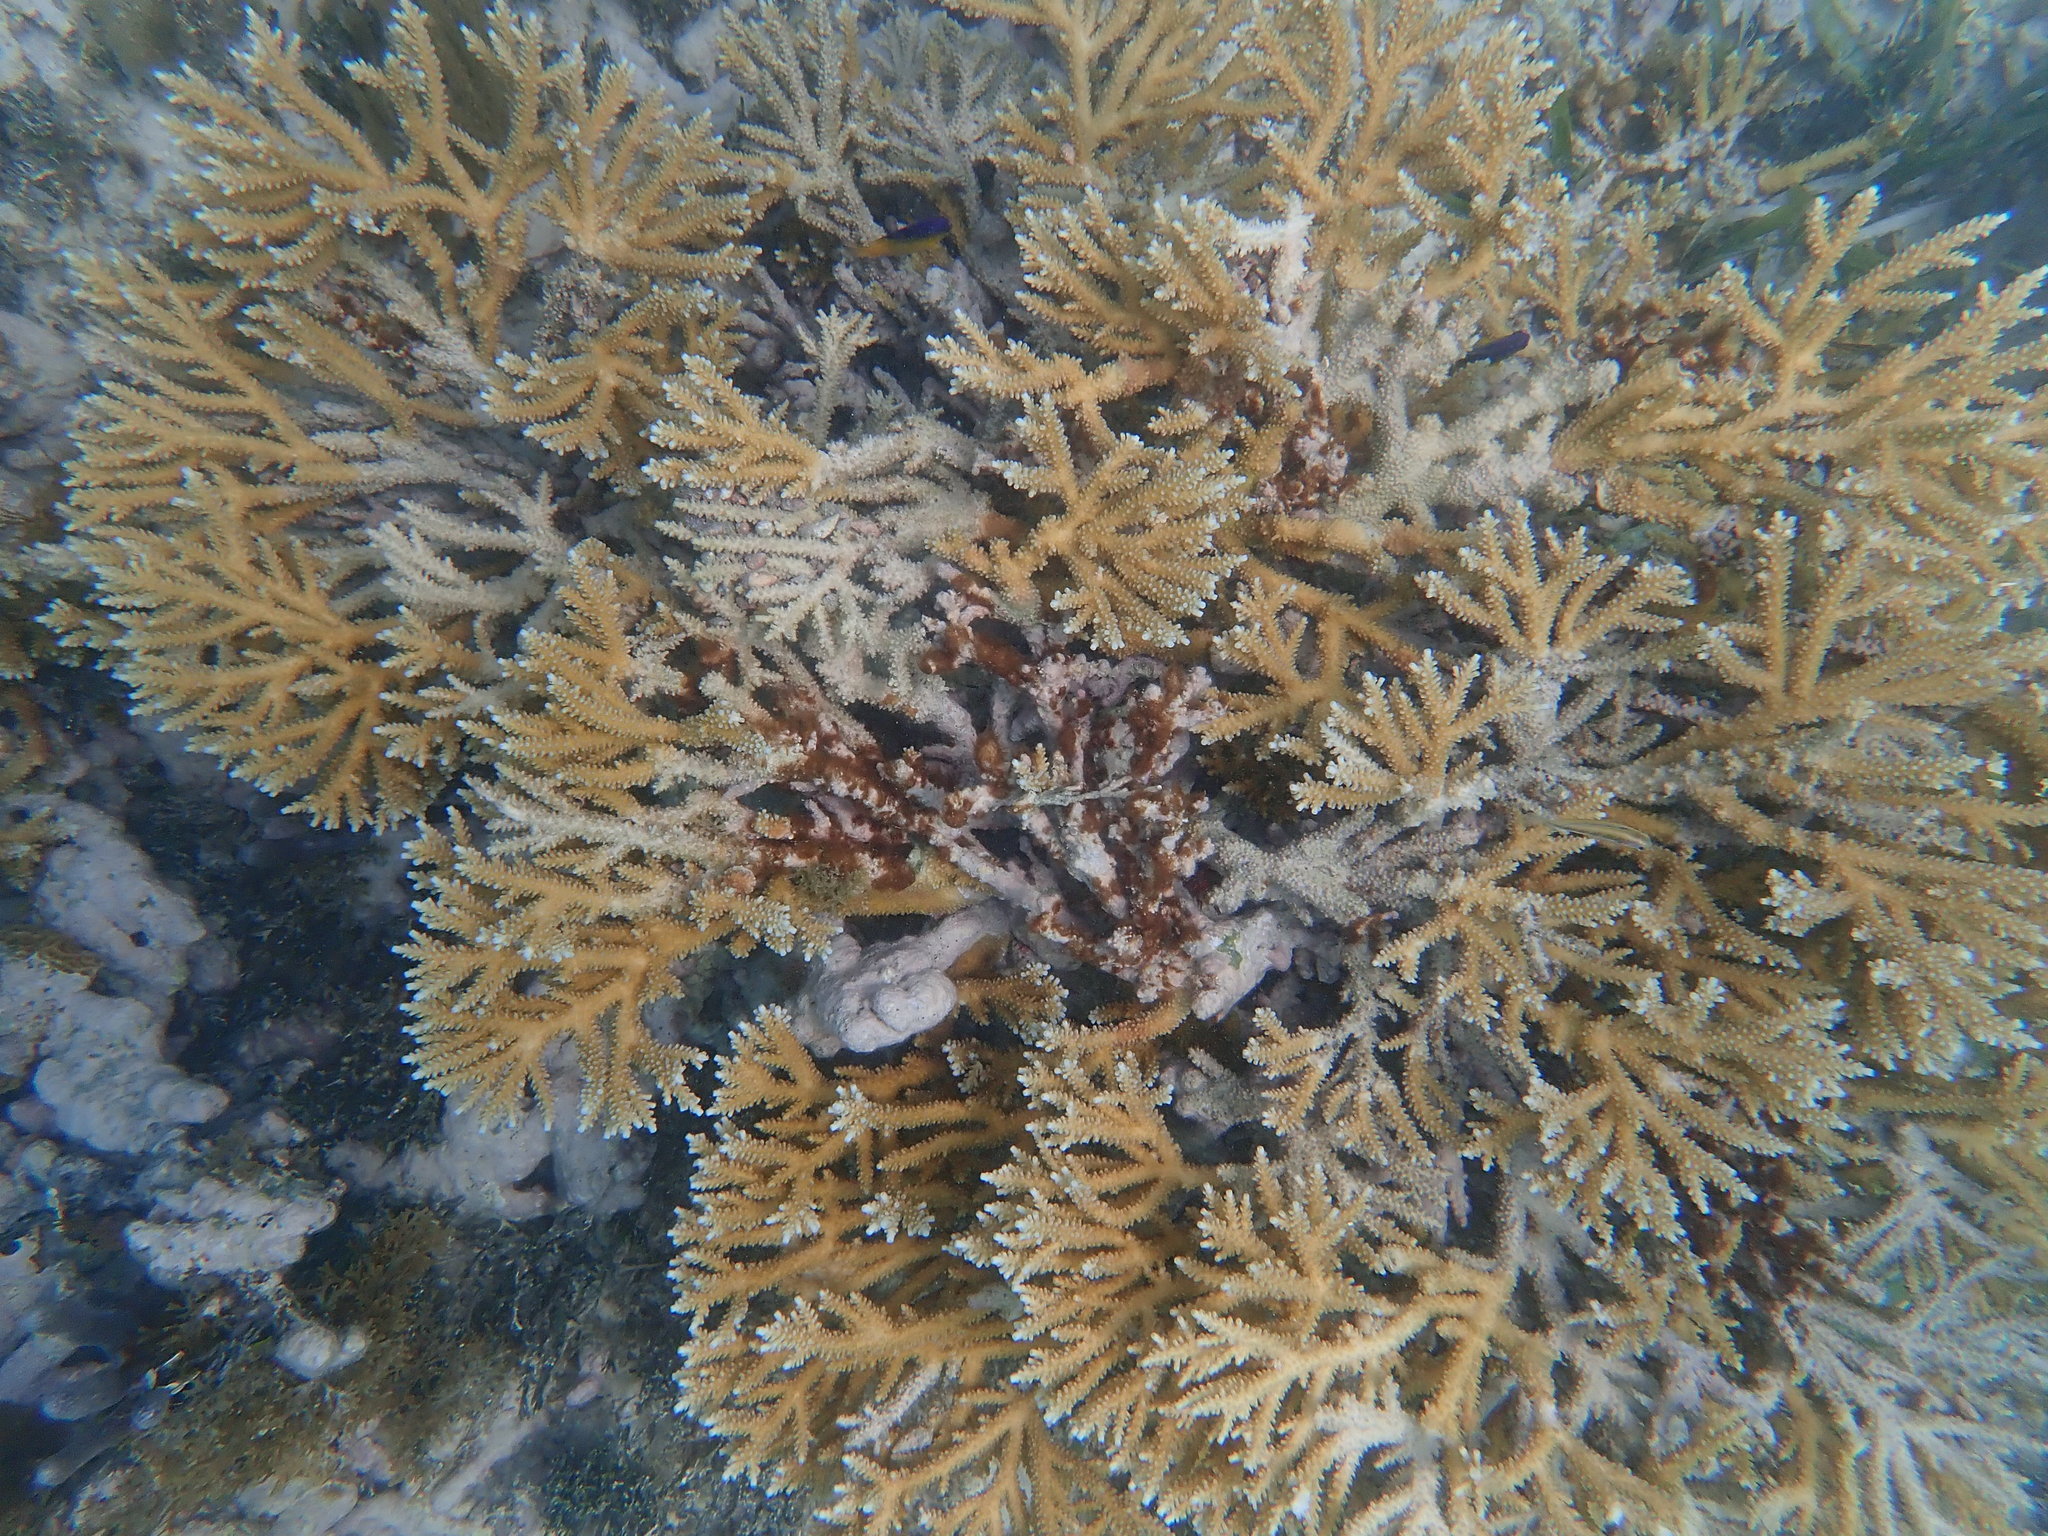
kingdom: Animalia
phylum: Cnidaria
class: Anthozoa
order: Scleractinia
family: Acroporidae
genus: Acropora
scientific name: Acropora prolifera
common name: Fused staghorn coral
